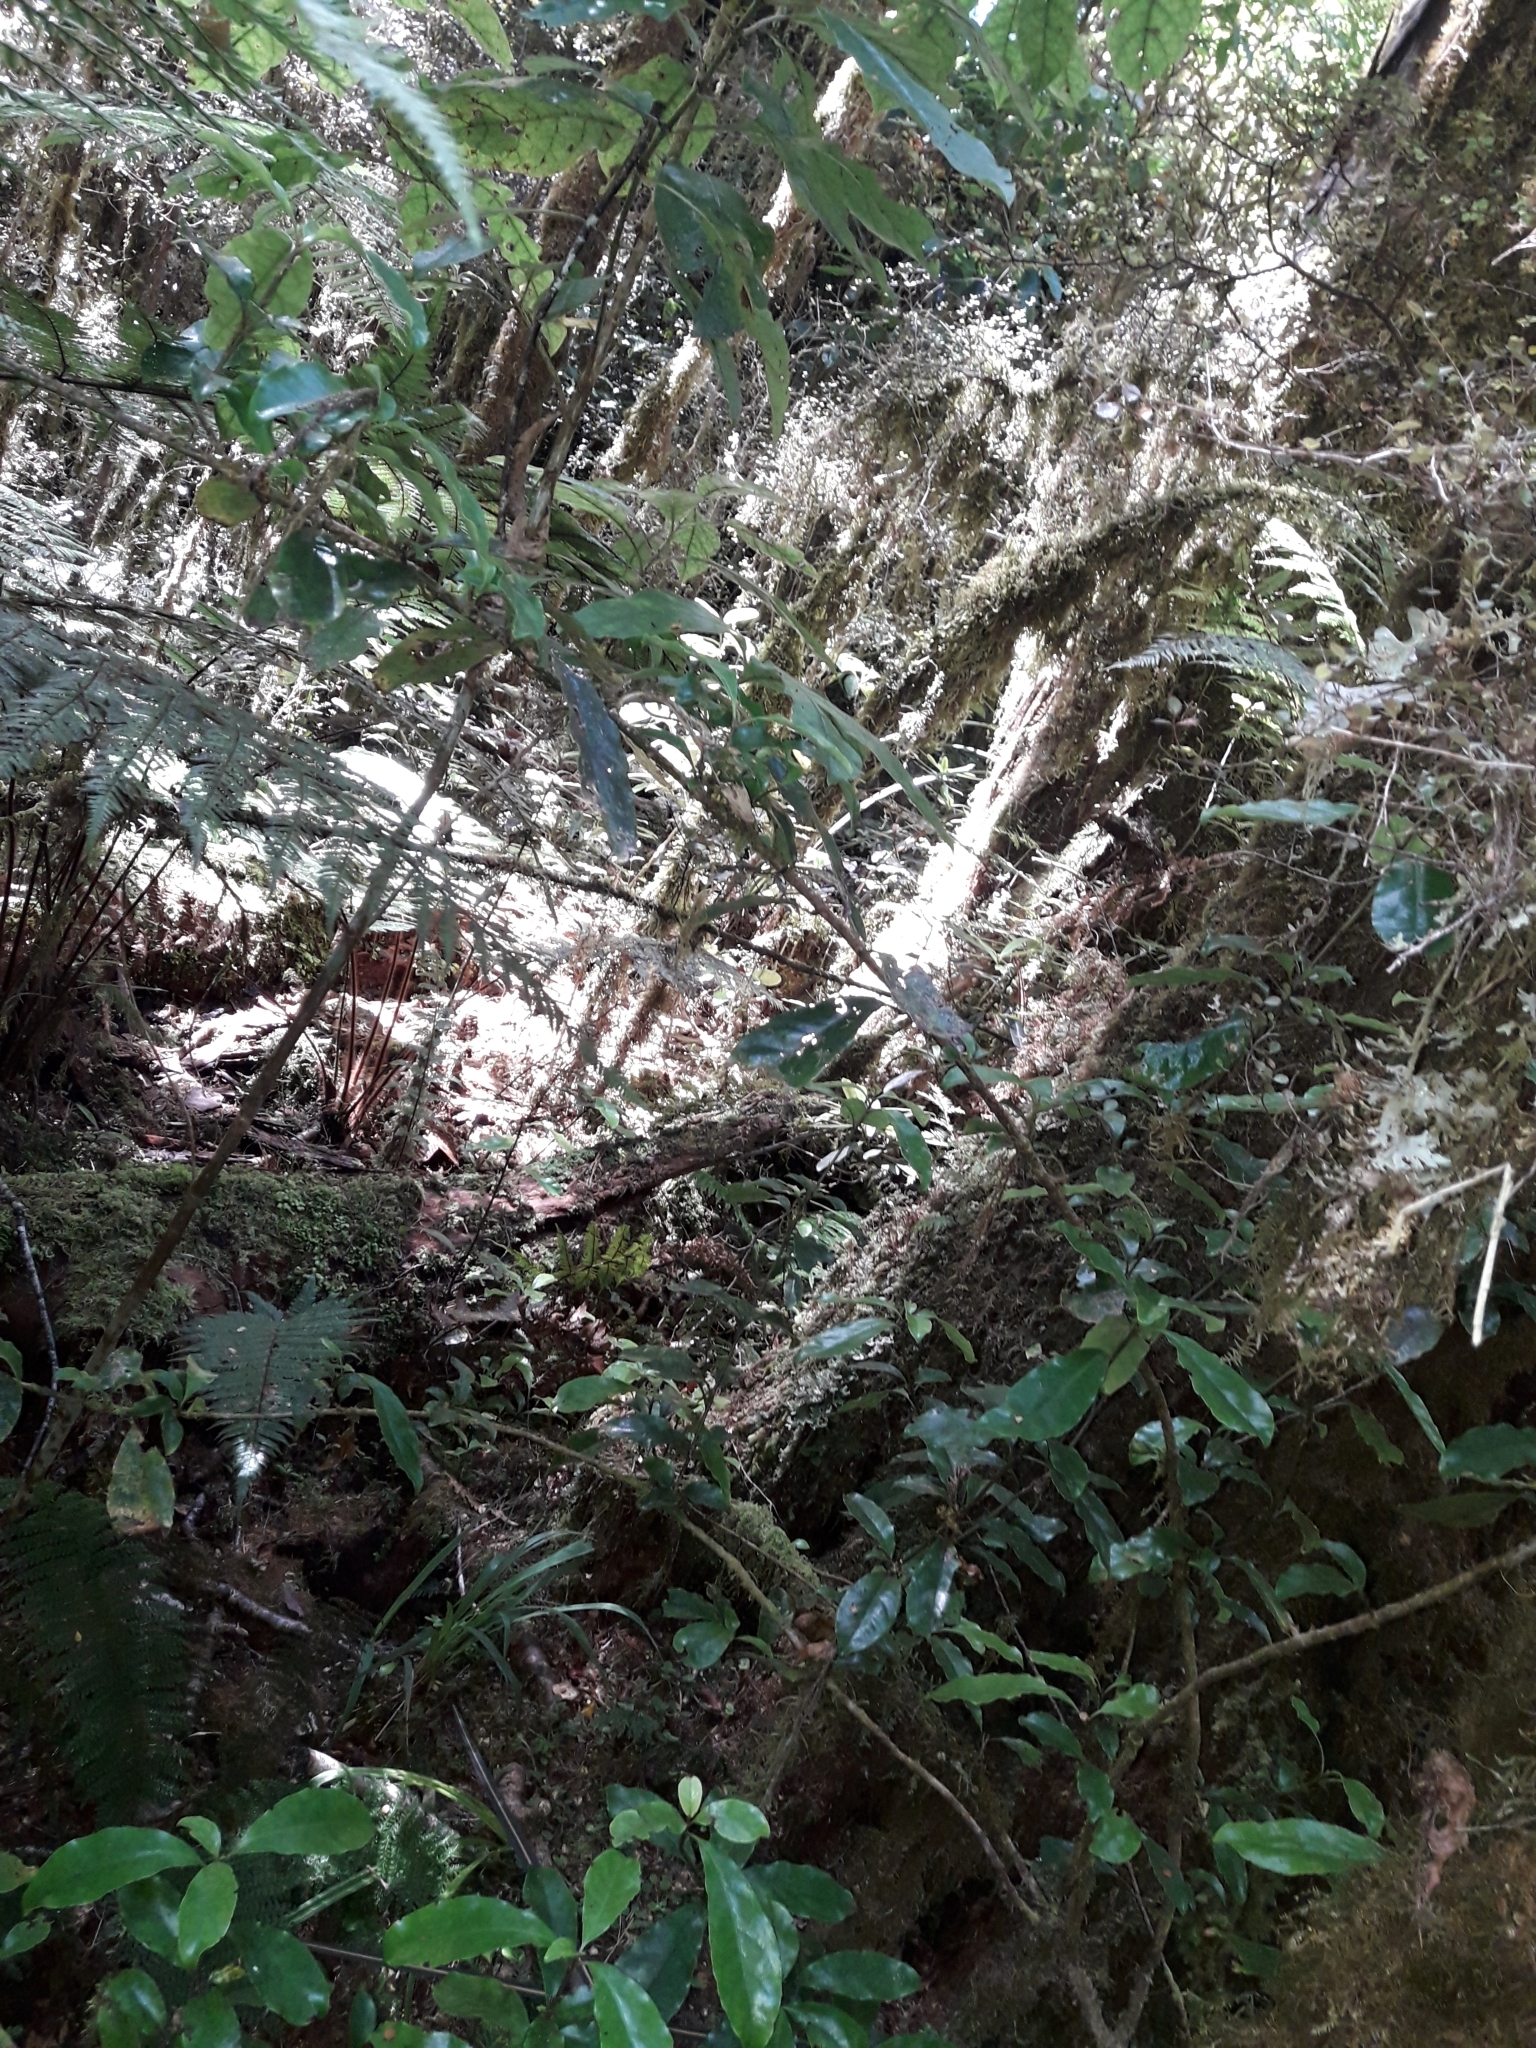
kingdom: Plantae
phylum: Tracheophyta
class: Magnoliopsida
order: Asterales
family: Alseuosmiaceae
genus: Alseuosmia
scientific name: Alseuosmia macrophylla
